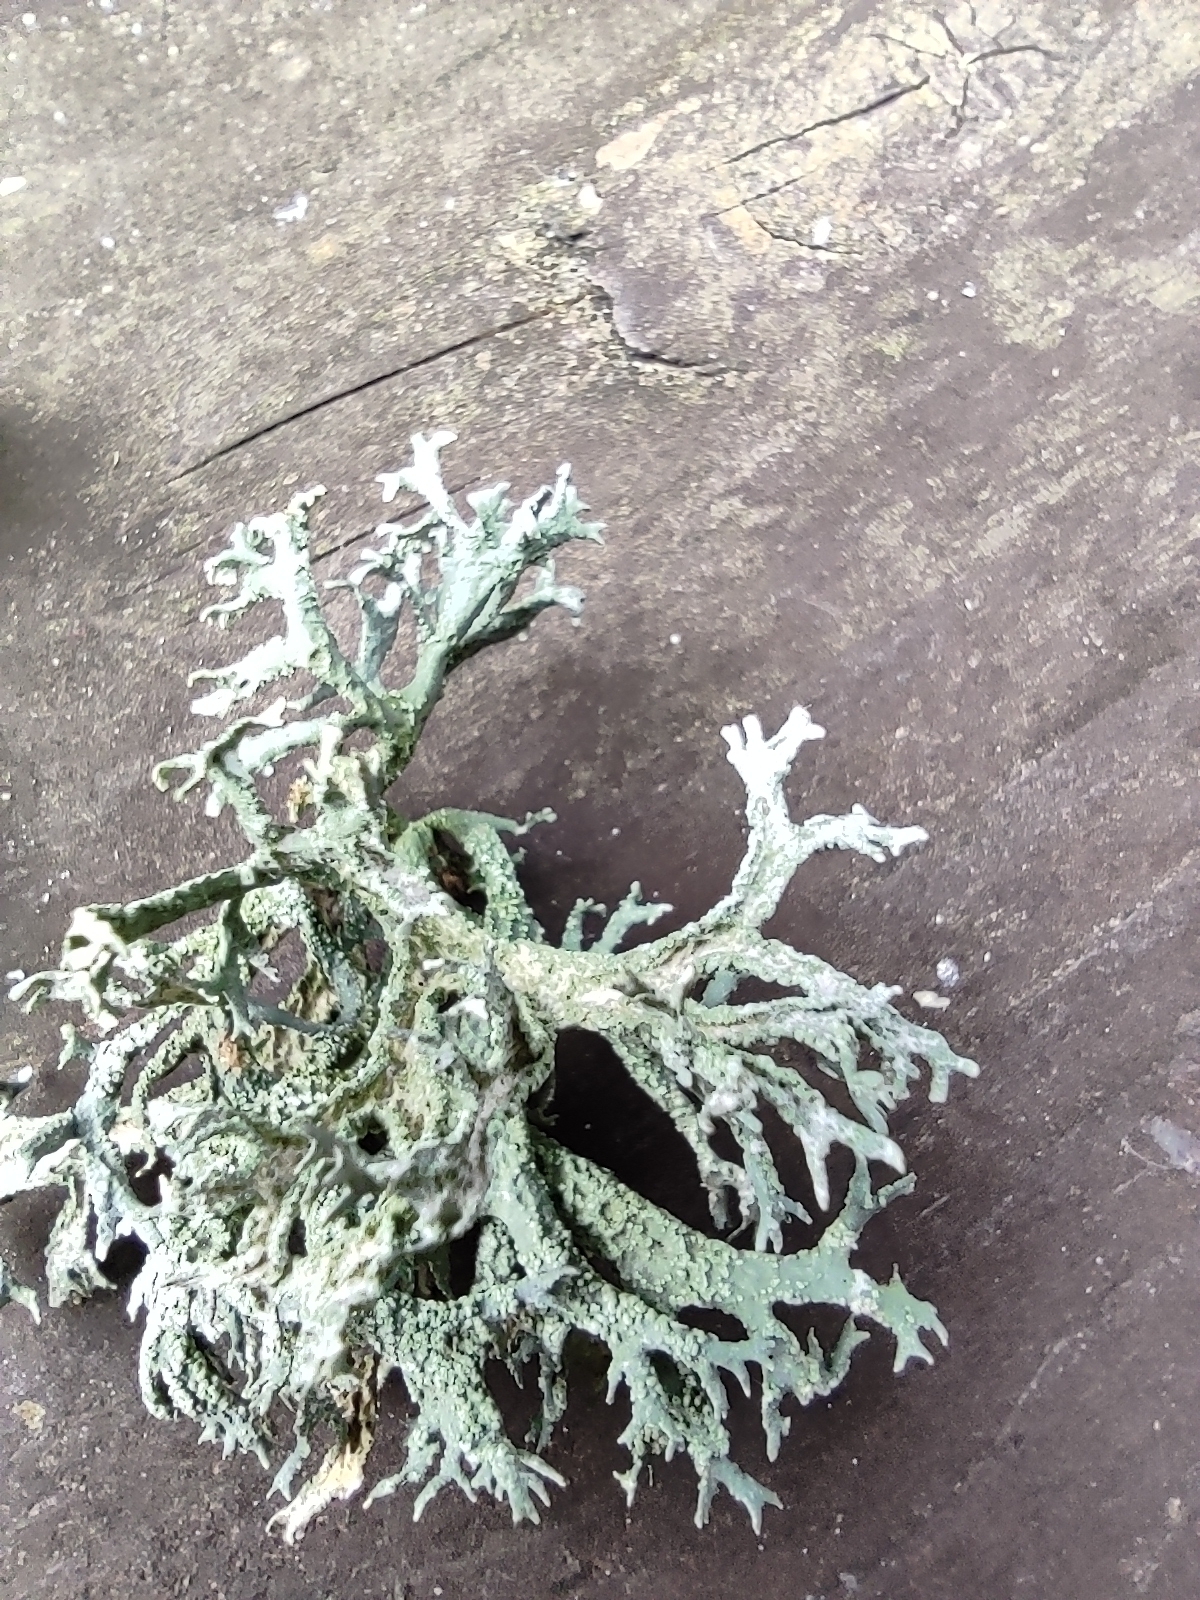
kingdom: Fungi
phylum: Ascomycota
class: Lecanoromycetes
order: Lecanorales
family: Parmeliaceae
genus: Evernia
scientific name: Evernia prunastri
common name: Oak moss
